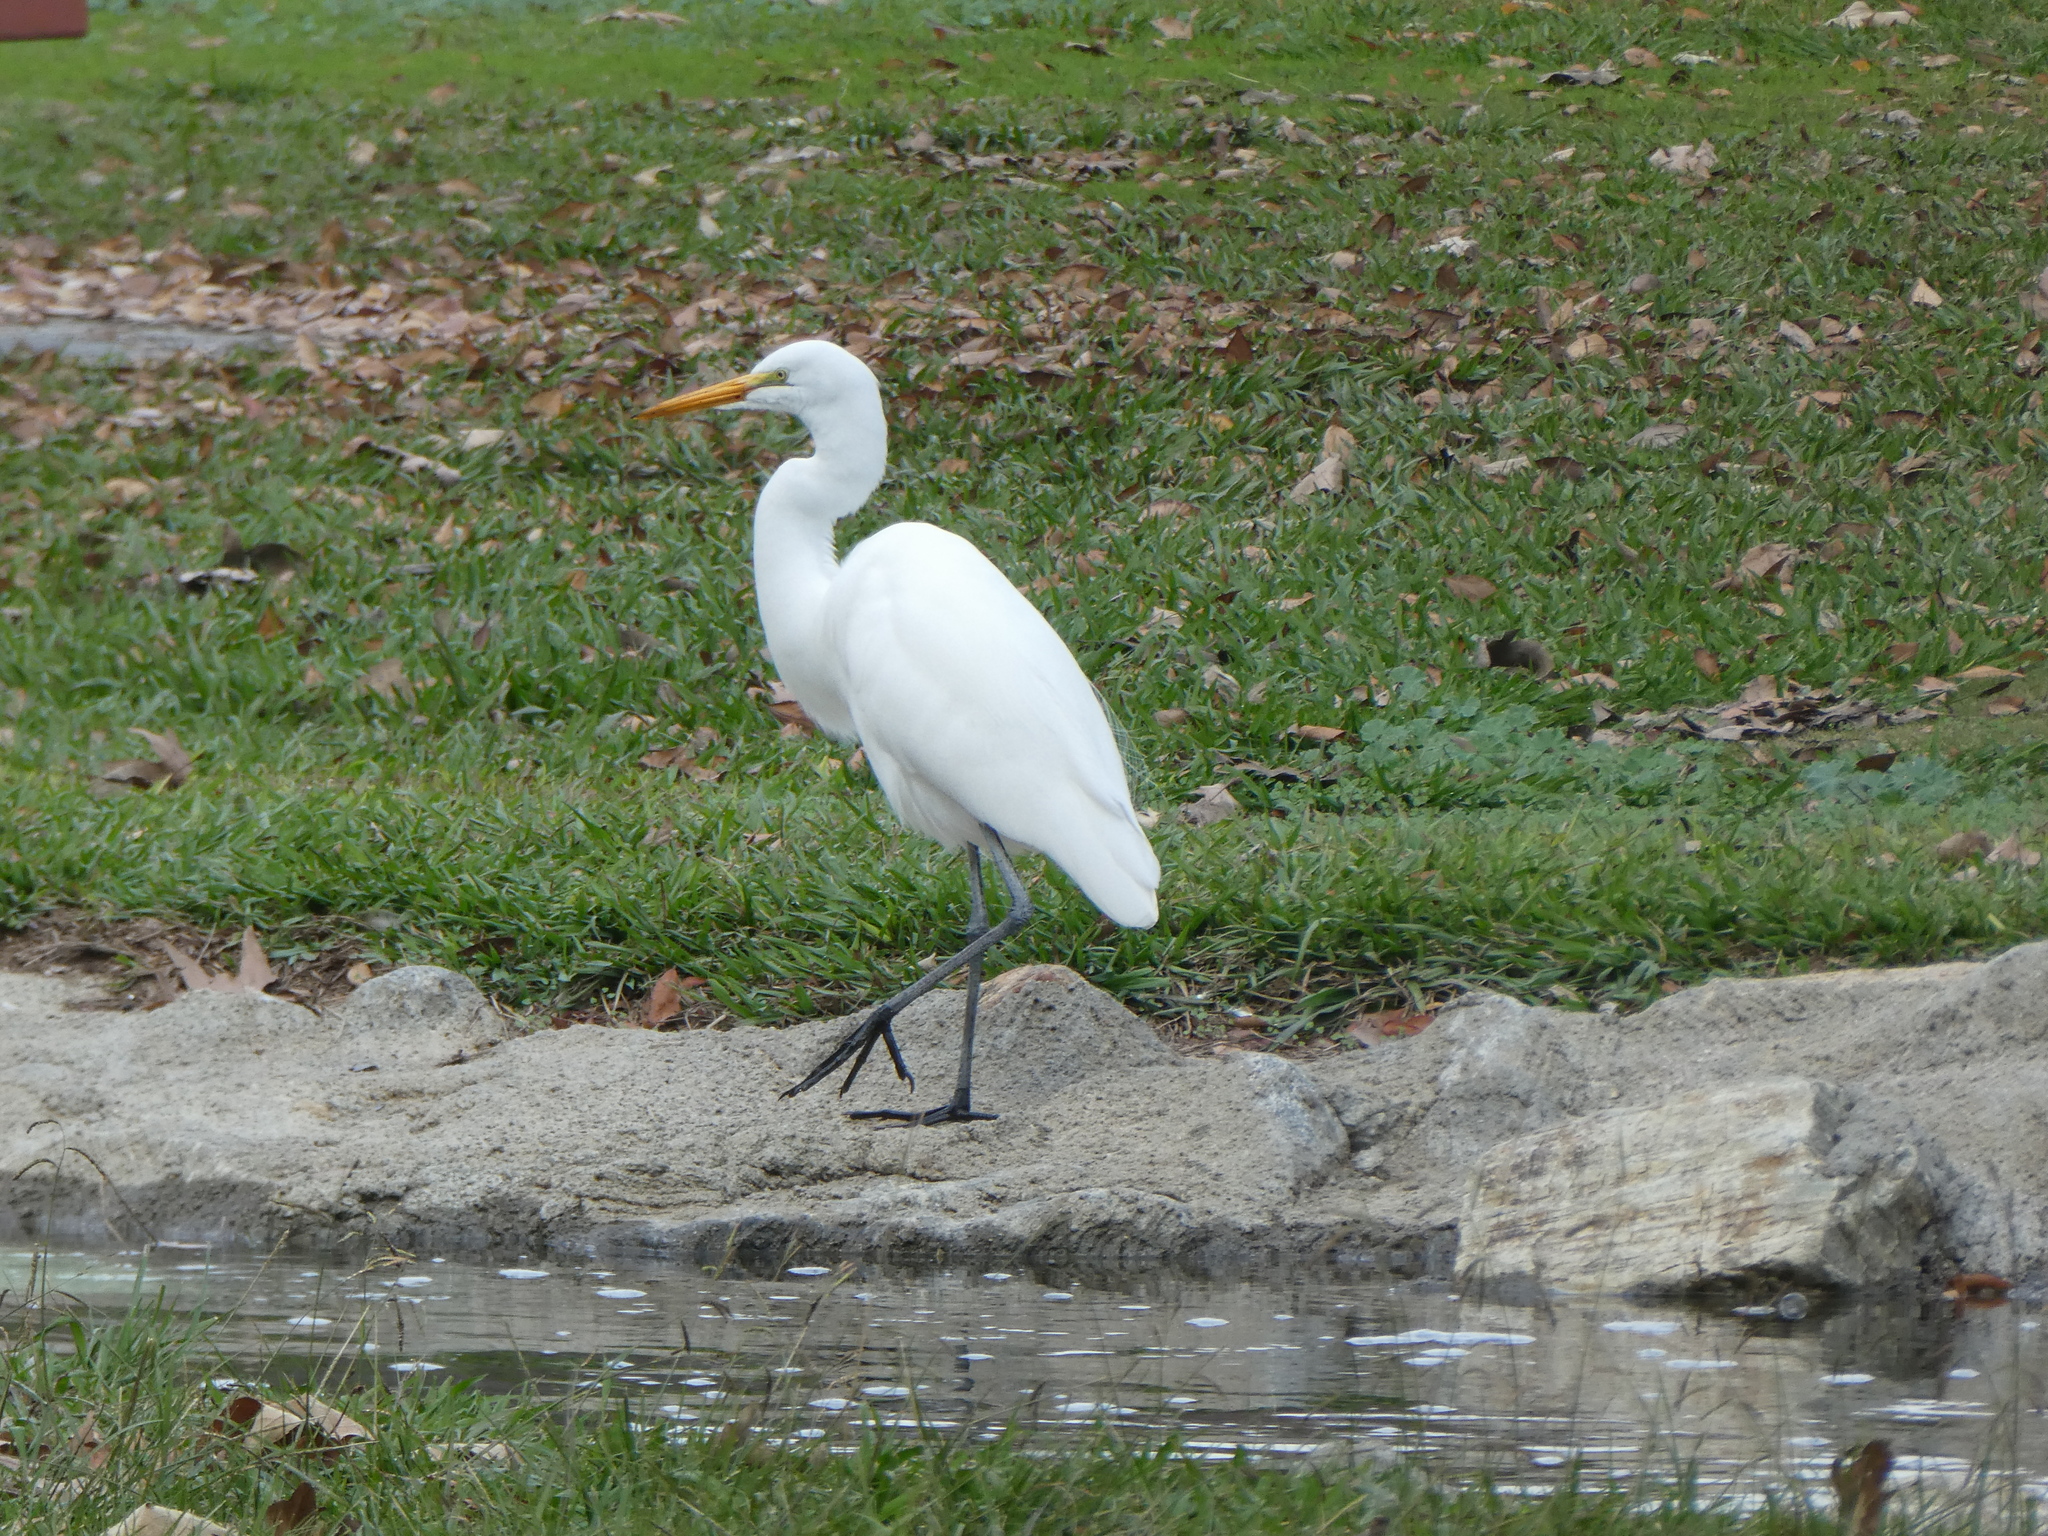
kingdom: Animalia
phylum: Chordata
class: Aves
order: Pelecaniformes
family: Ardeidae
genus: Ardea
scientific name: Ardea alba
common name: Great egret
